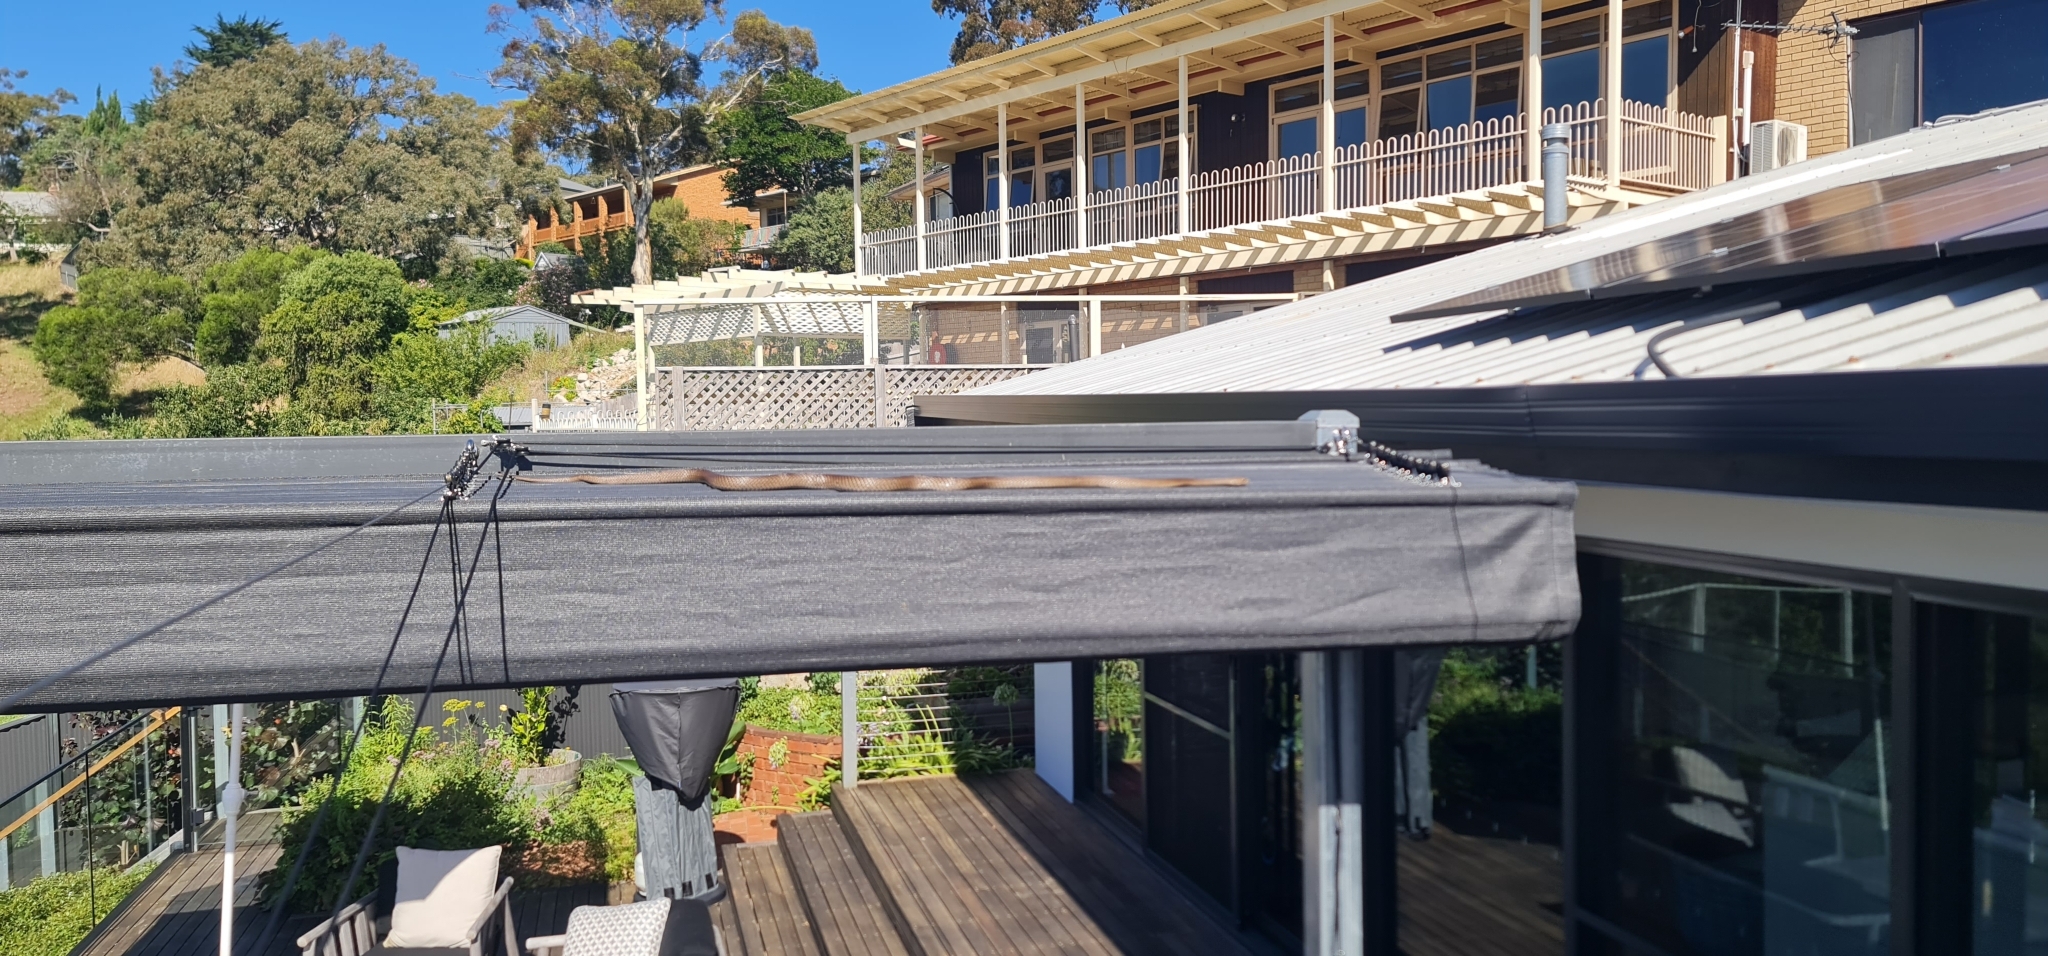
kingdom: Animalia
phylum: Chordata
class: Squamata
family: Elapidae
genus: Pseudonaja
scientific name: Pseudonaja textilis
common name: Eastern brown snake
